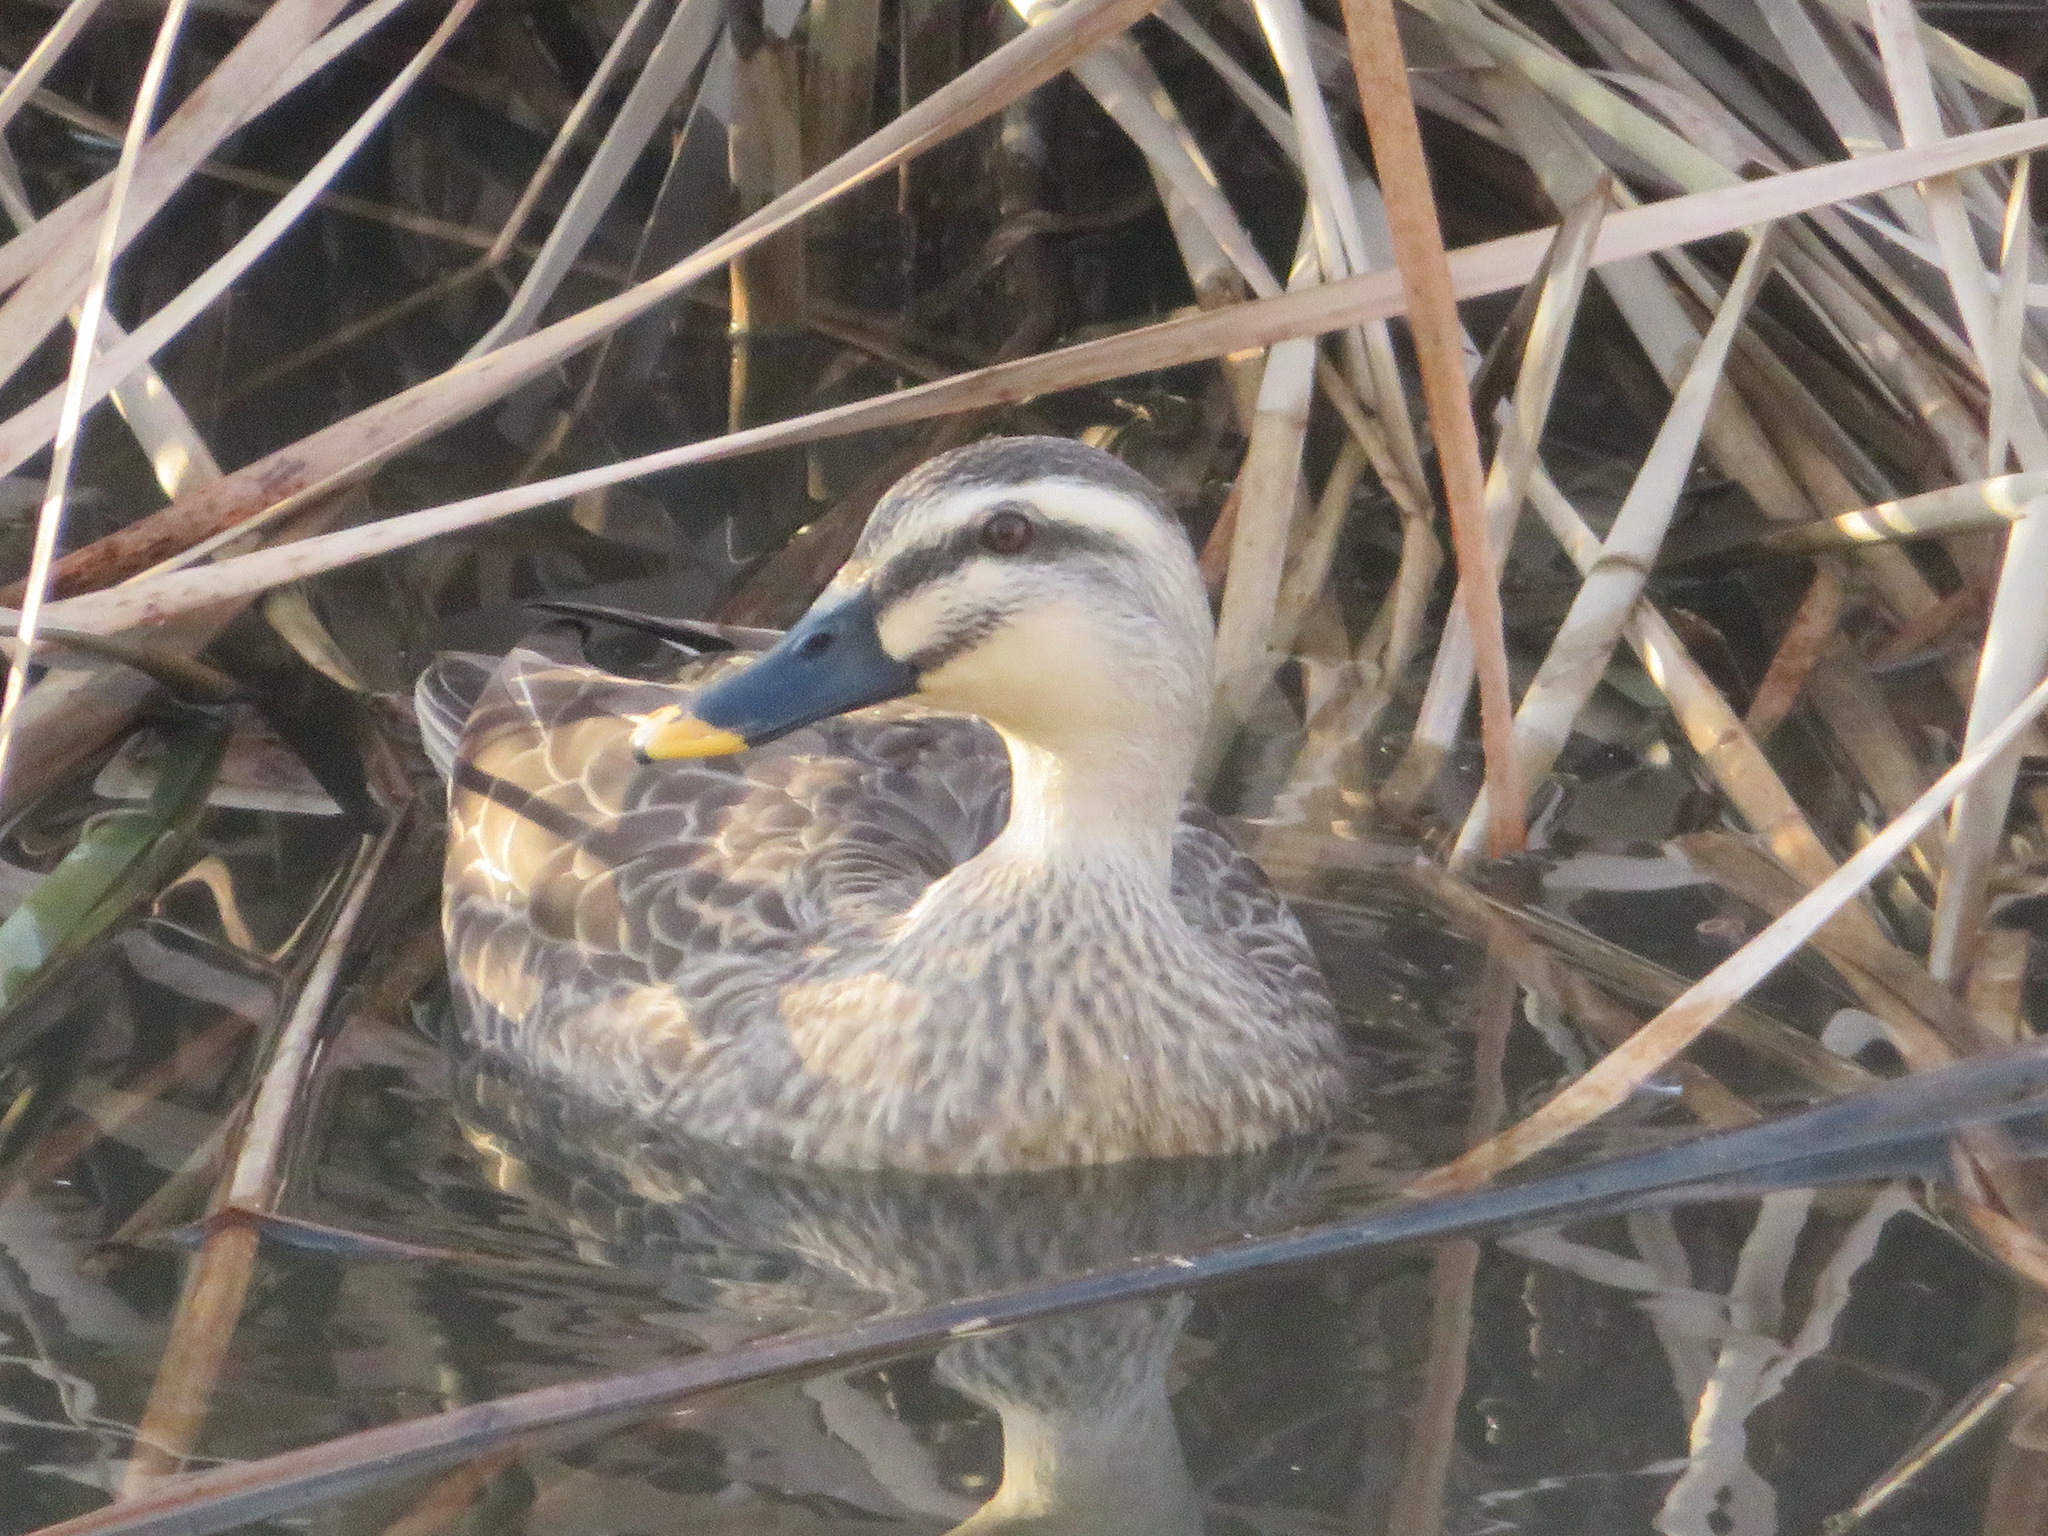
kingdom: Animalia
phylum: Chordata
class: Aves
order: Anseriformes
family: Anatidae
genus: Anas
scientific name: Anas zonorhyncha
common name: Eastern spot-billed duck
